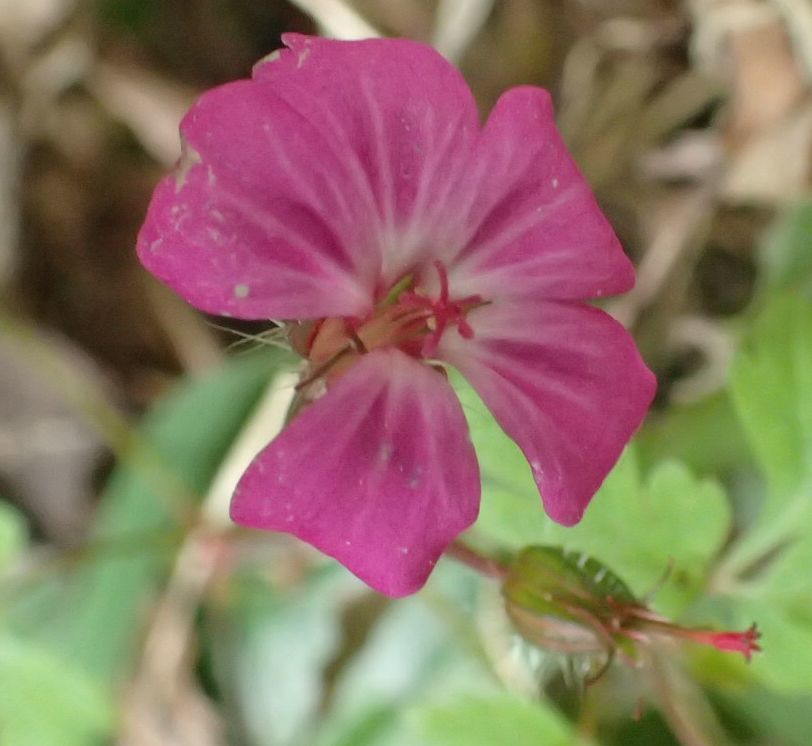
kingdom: Plantae
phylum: Tracheophyta
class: Magnoliopsida
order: Geraniales
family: Geraniaceae
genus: Geranium
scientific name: Geranium robertianum
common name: Herb-robert
